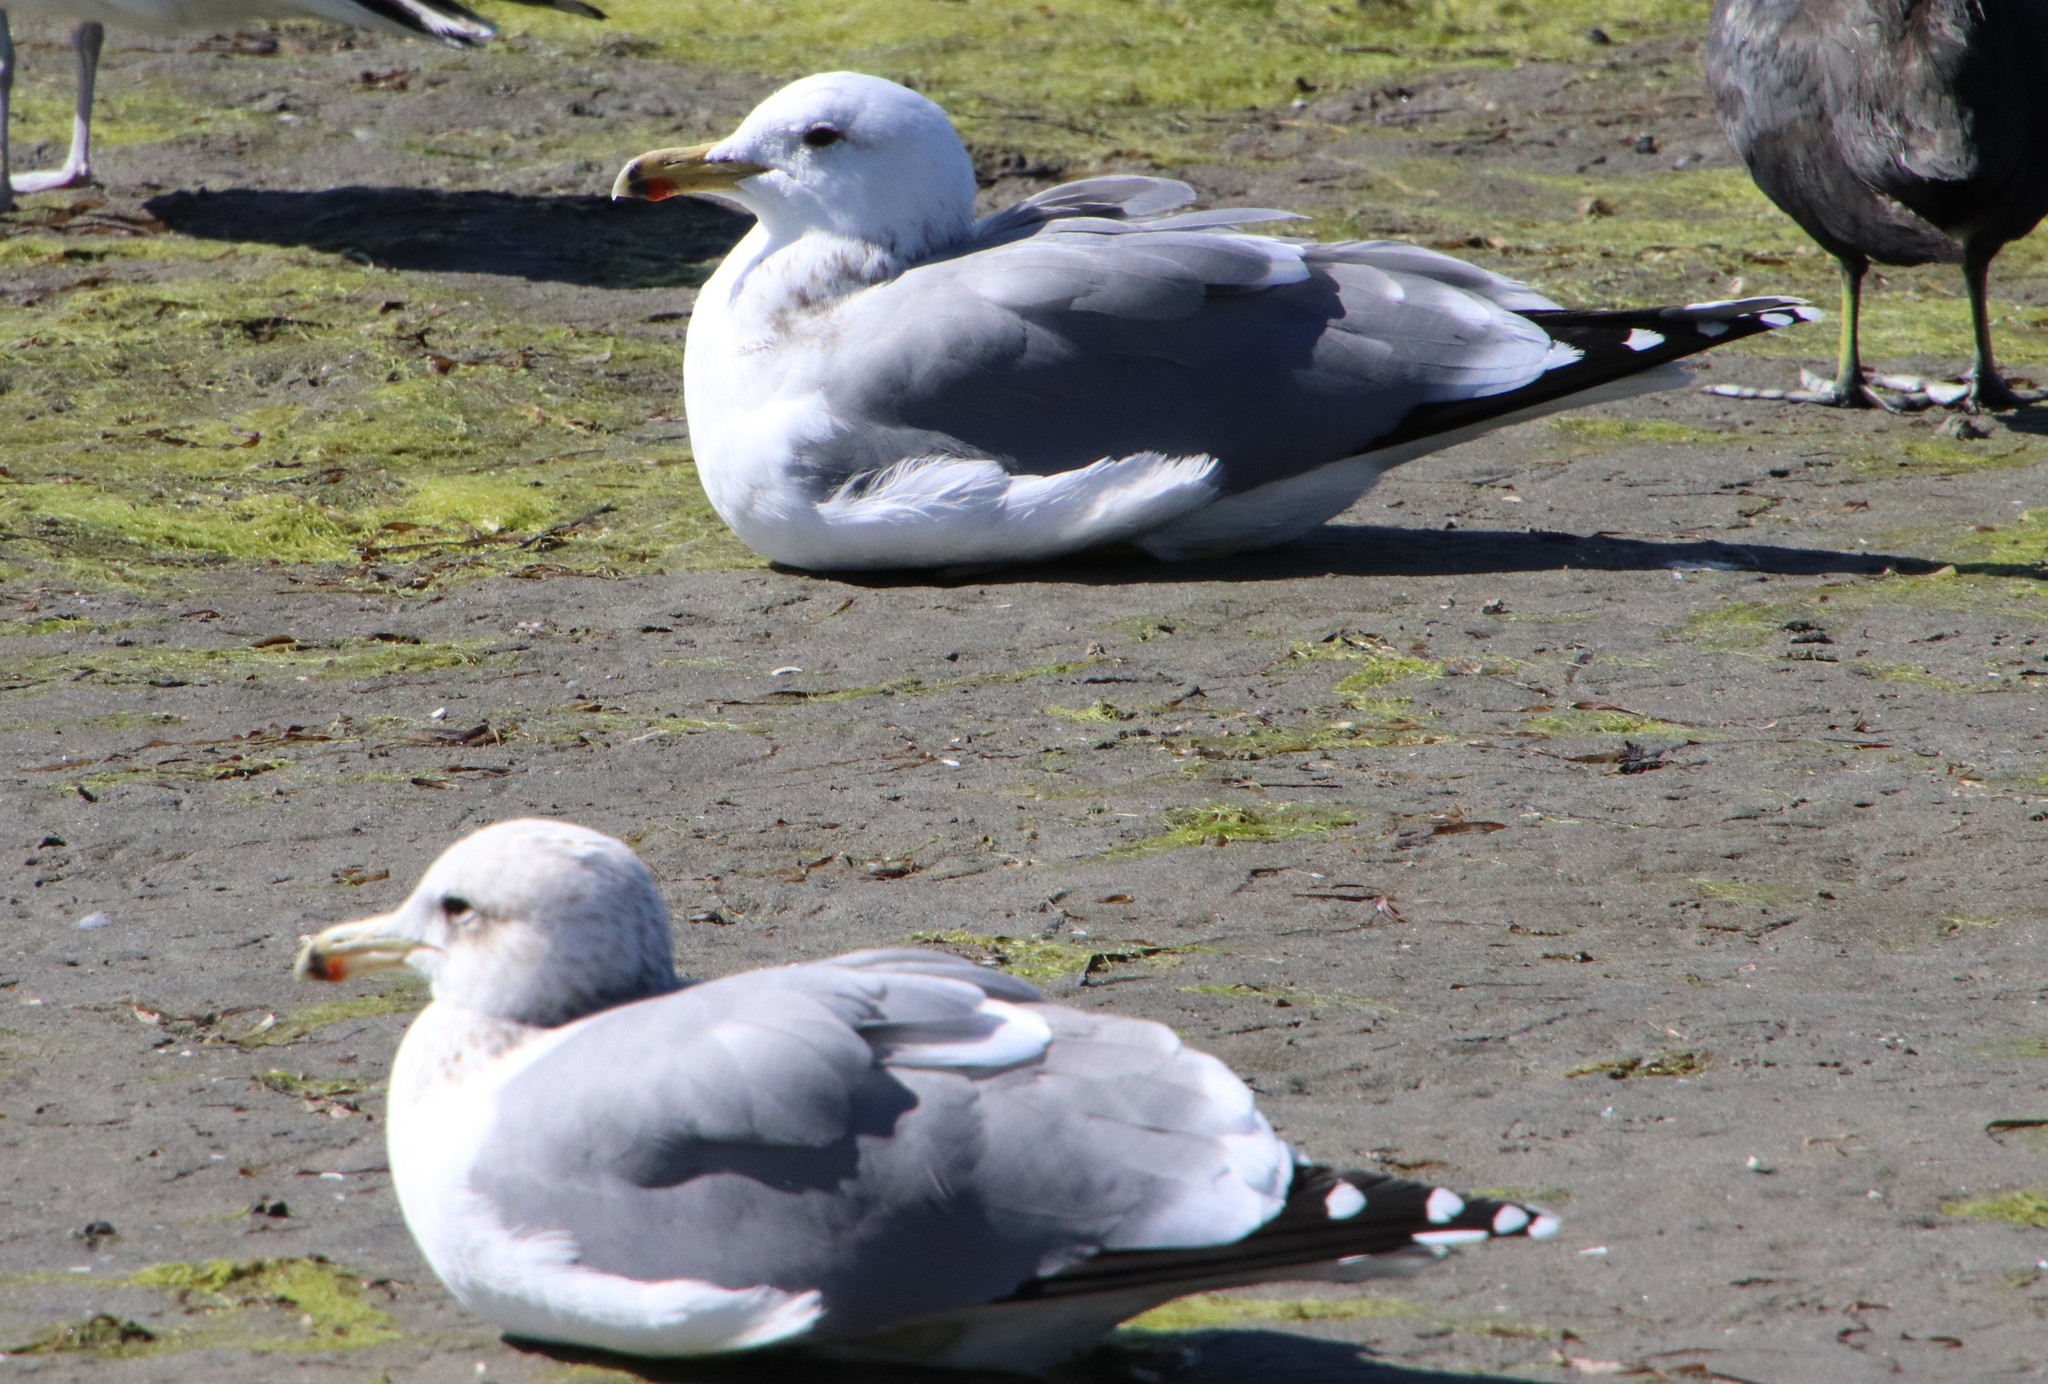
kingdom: Animalia
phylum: Chordata
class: Aves
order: Charadriiformes
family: Laridae
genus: Larus
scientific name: Larus californicus
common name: California gull
